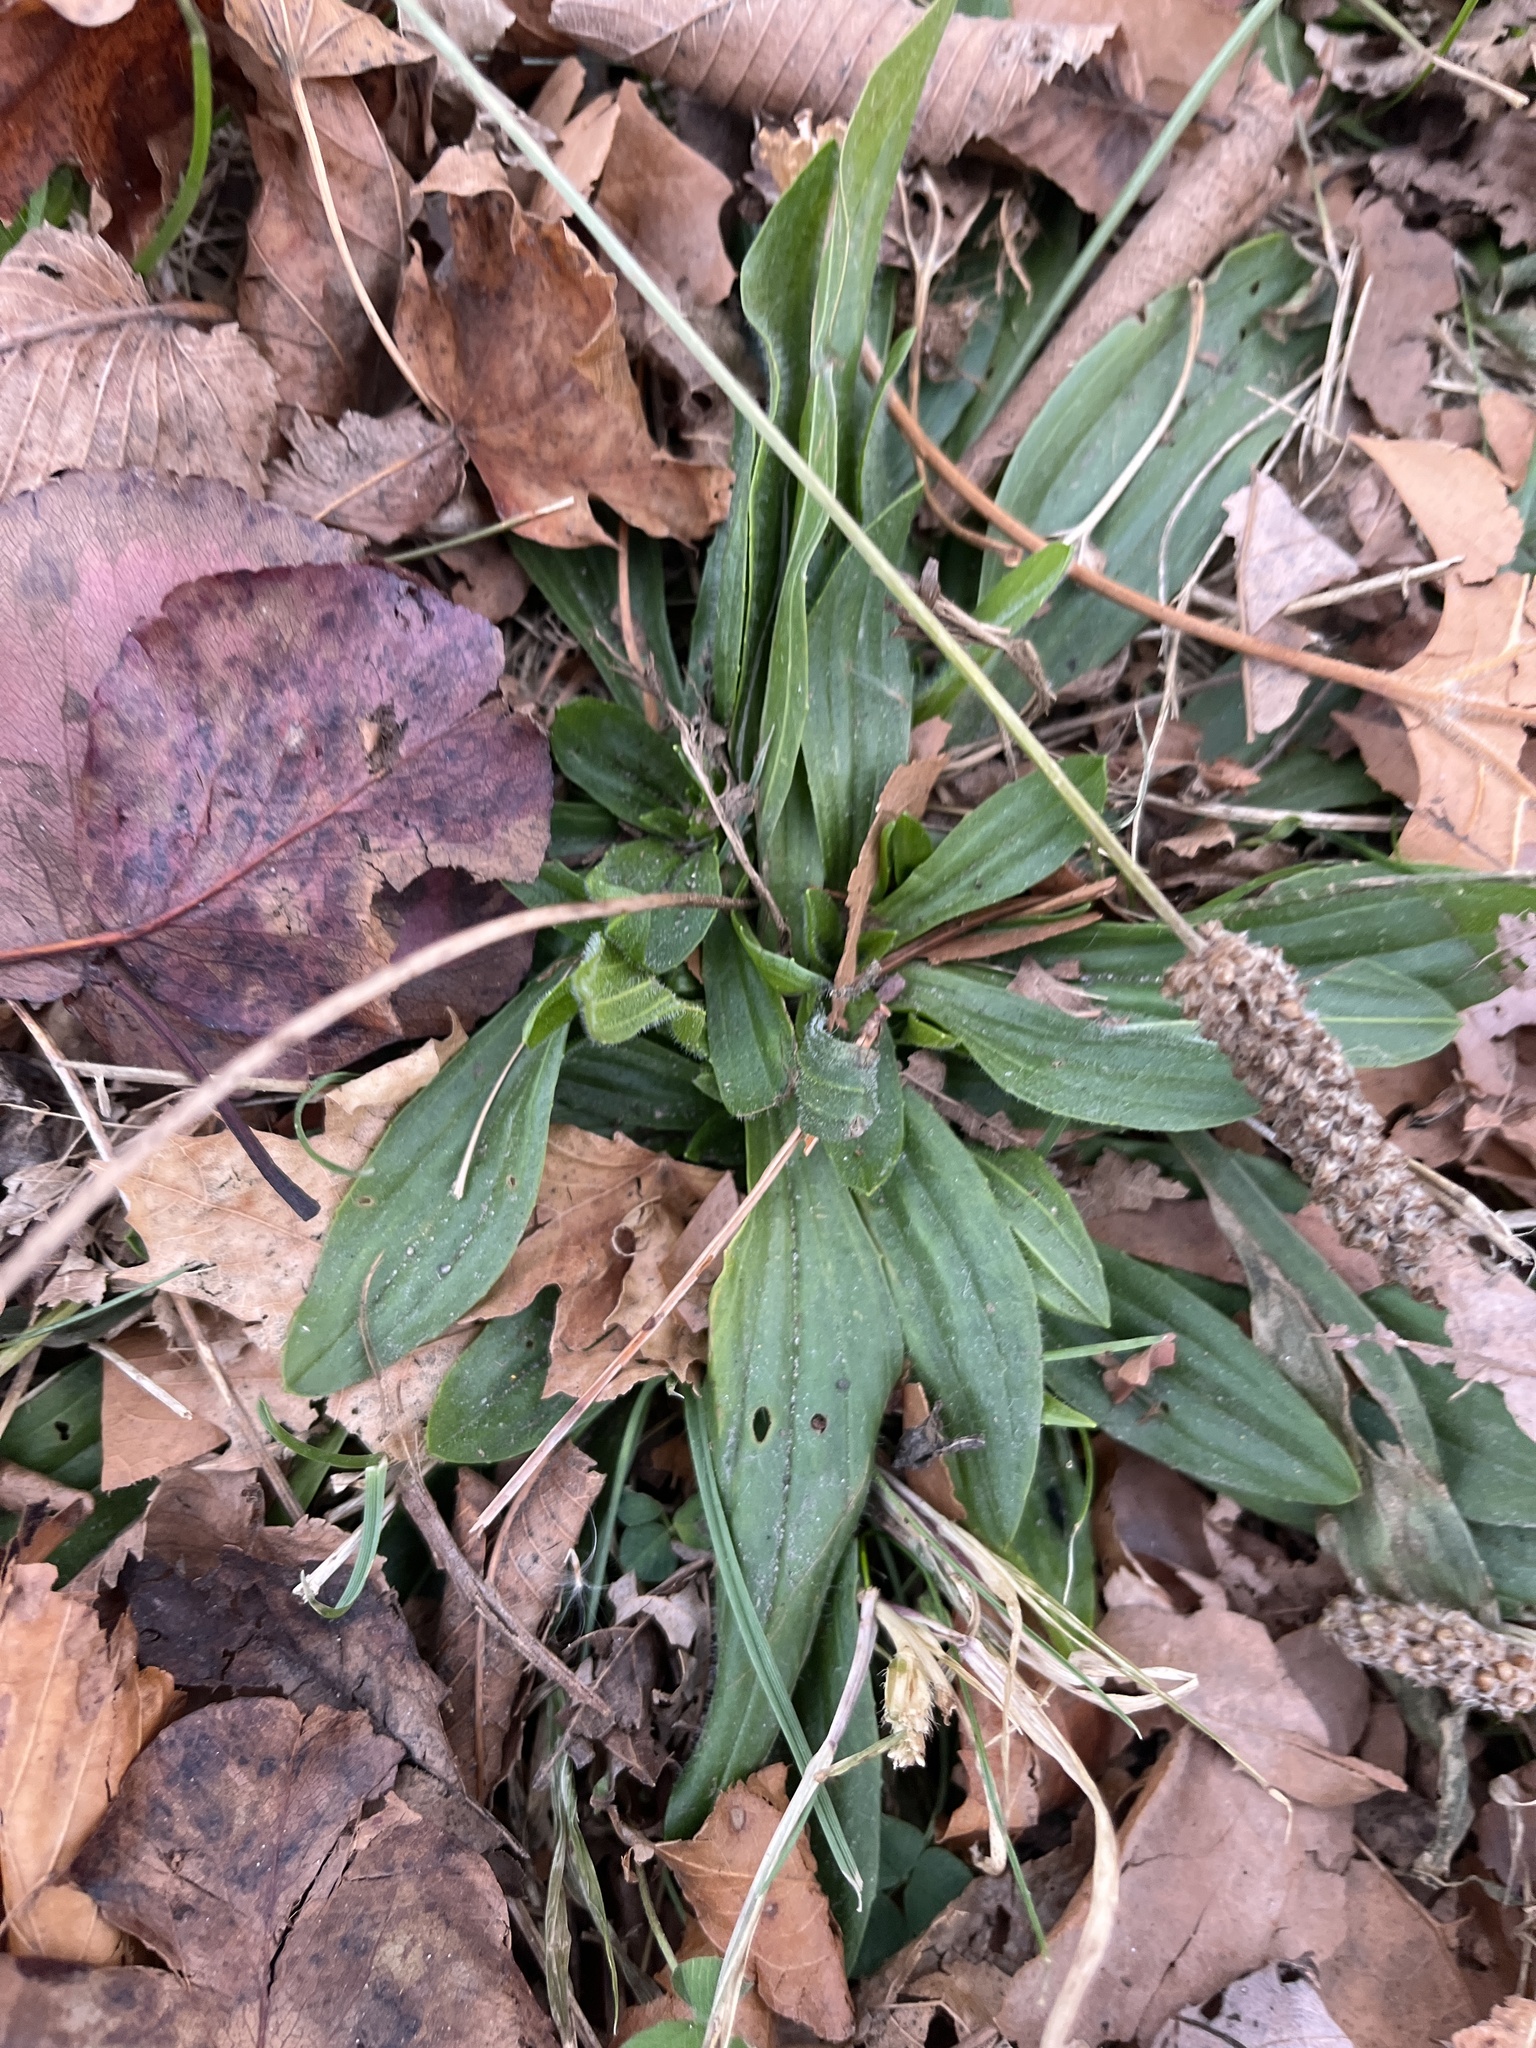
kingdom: Plantae
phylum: Tracheophyta
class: Magnoliopsida
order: Lamiales
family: Plantaginaceae
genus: Plantago
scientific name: Plantago lanceolata
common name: Ribwort plantain
